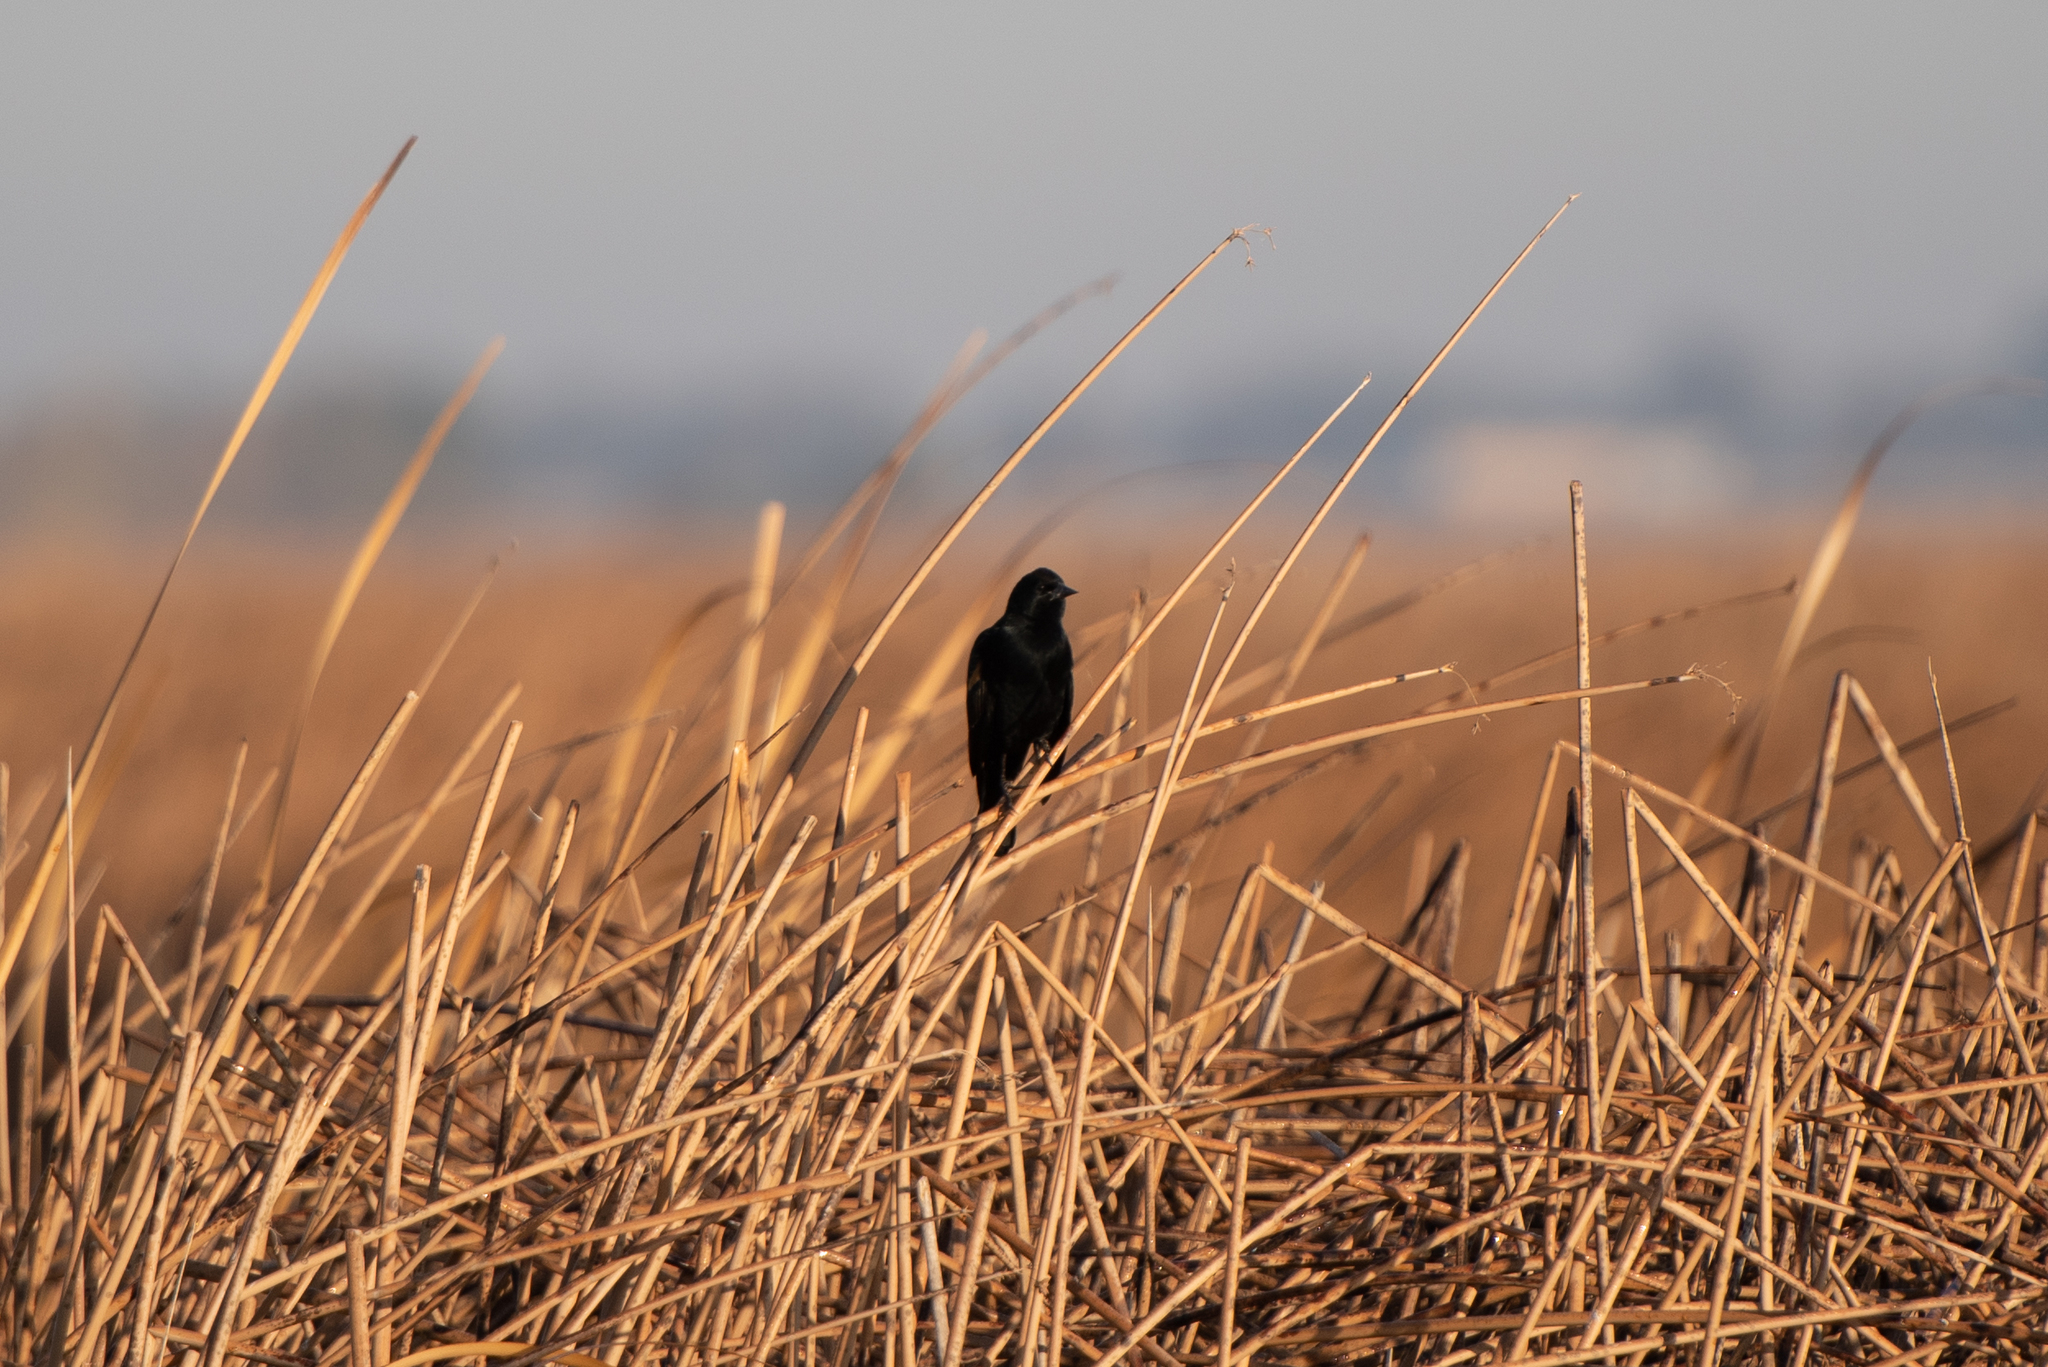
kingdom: Animalia
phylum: Chordata
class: Aves
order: Passeriformes
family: Icteridae
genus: Agelaius
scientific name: Agelaius phoeniceus
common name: Red-winged blackbird
